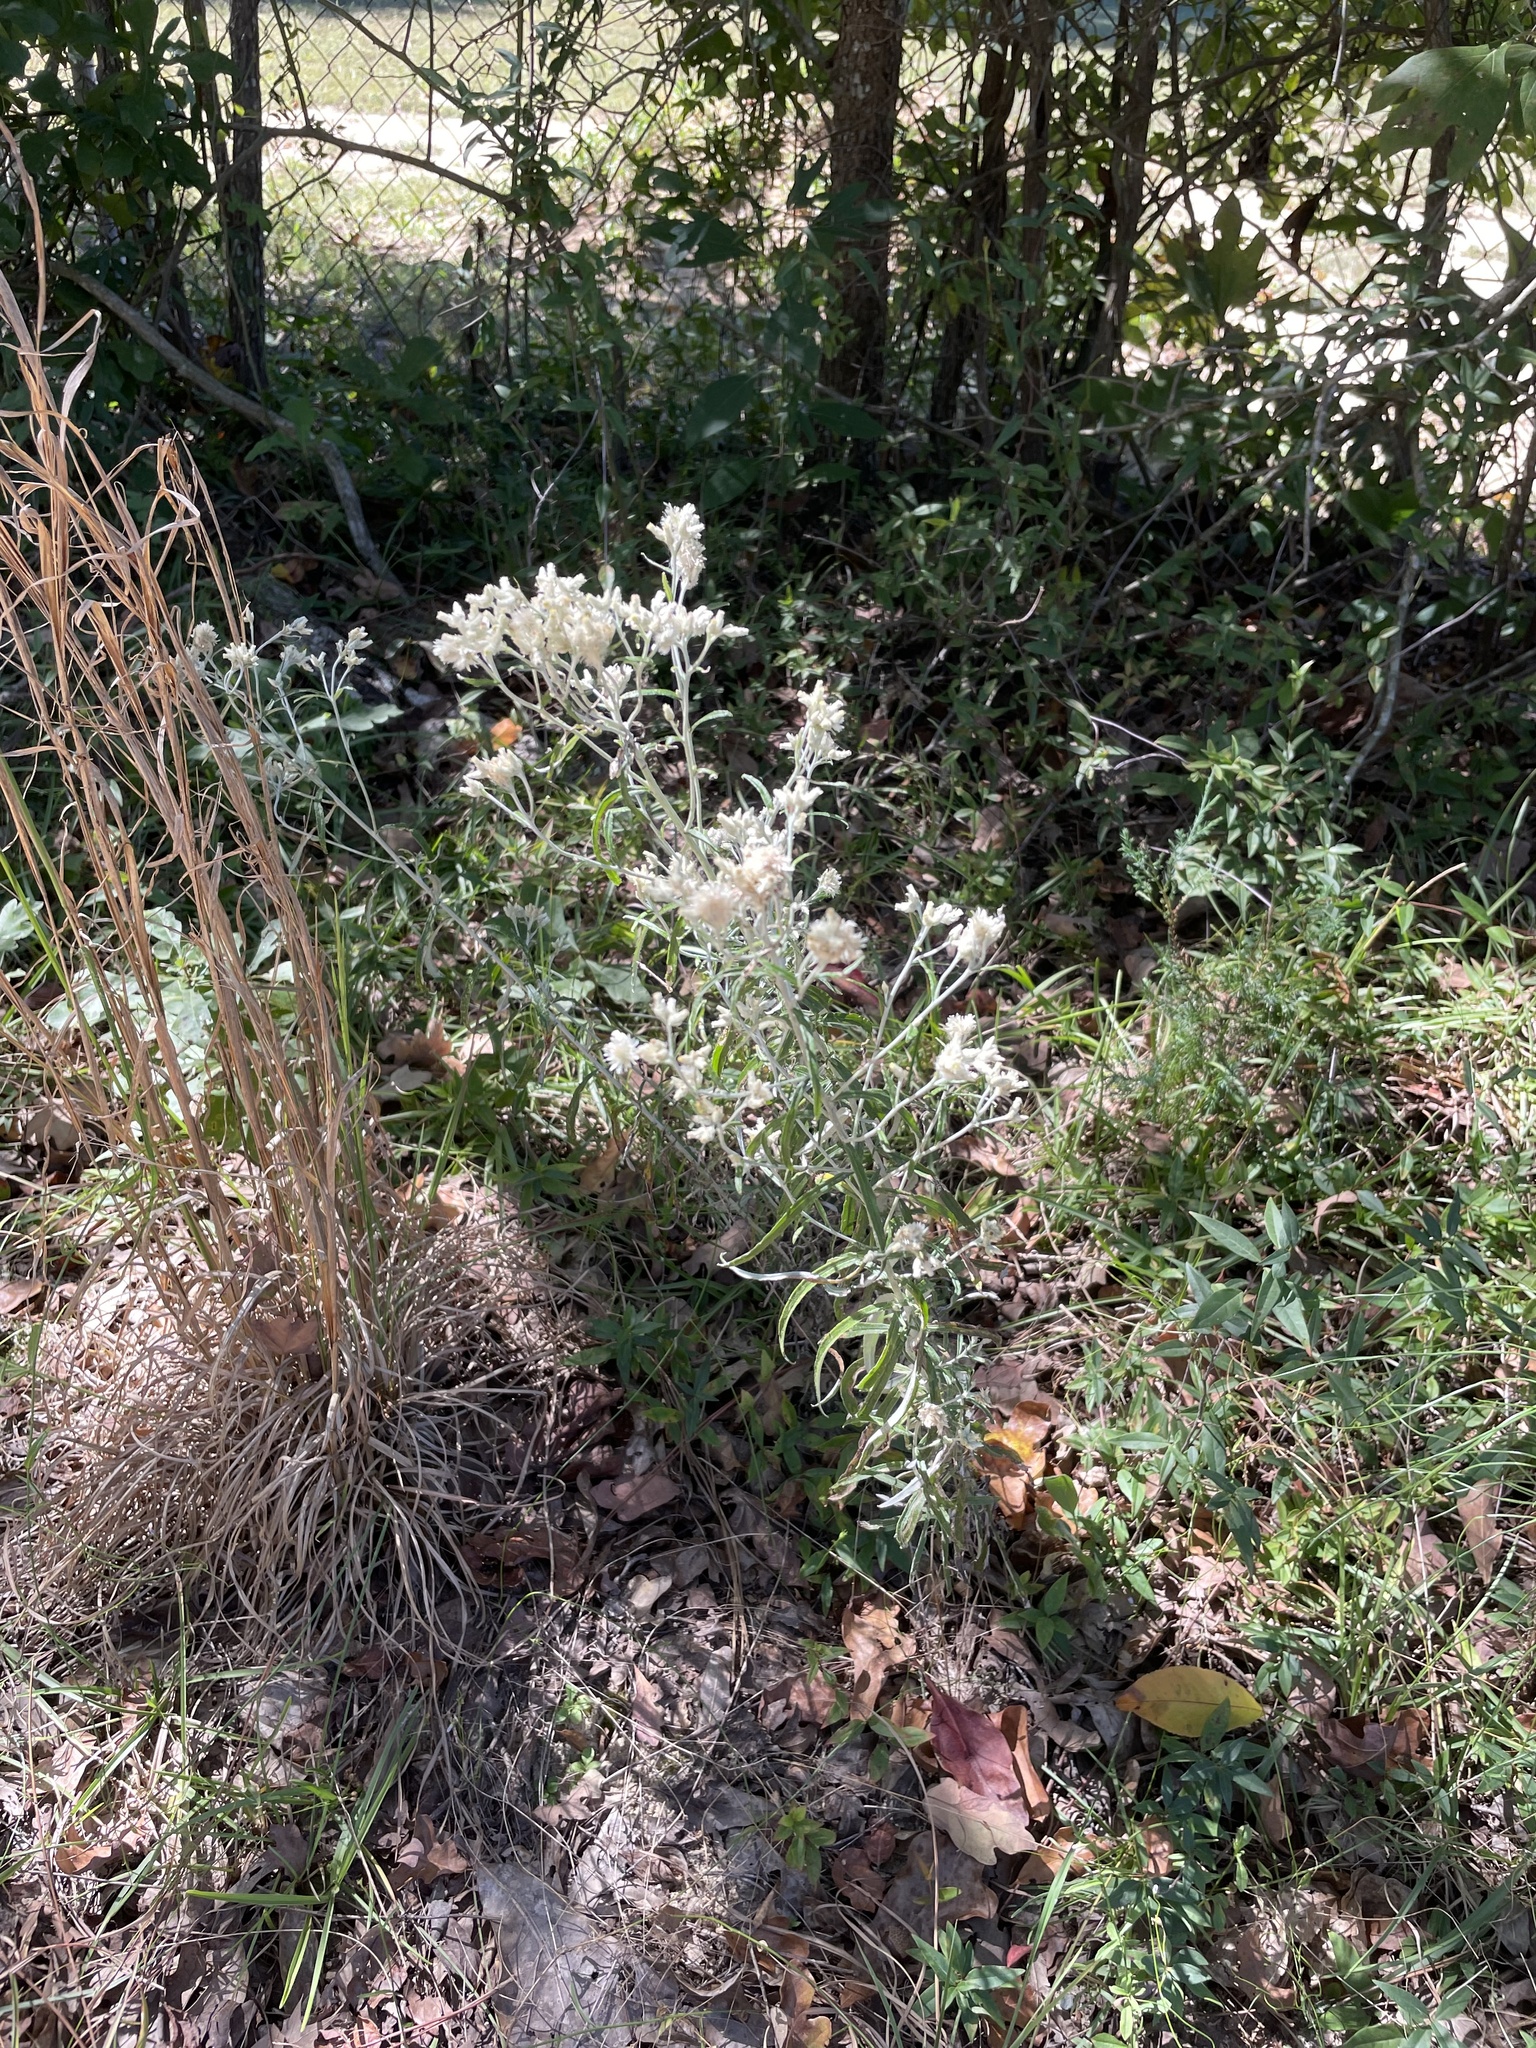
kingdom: Plantae
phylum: Tracheophyta
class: Magnoliopsida
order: Asterales
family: Asteraceae
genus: Pseudognaphalium
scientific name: Pseudognaphalium obtusifolium
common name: Eastern rabbit-tobacco
